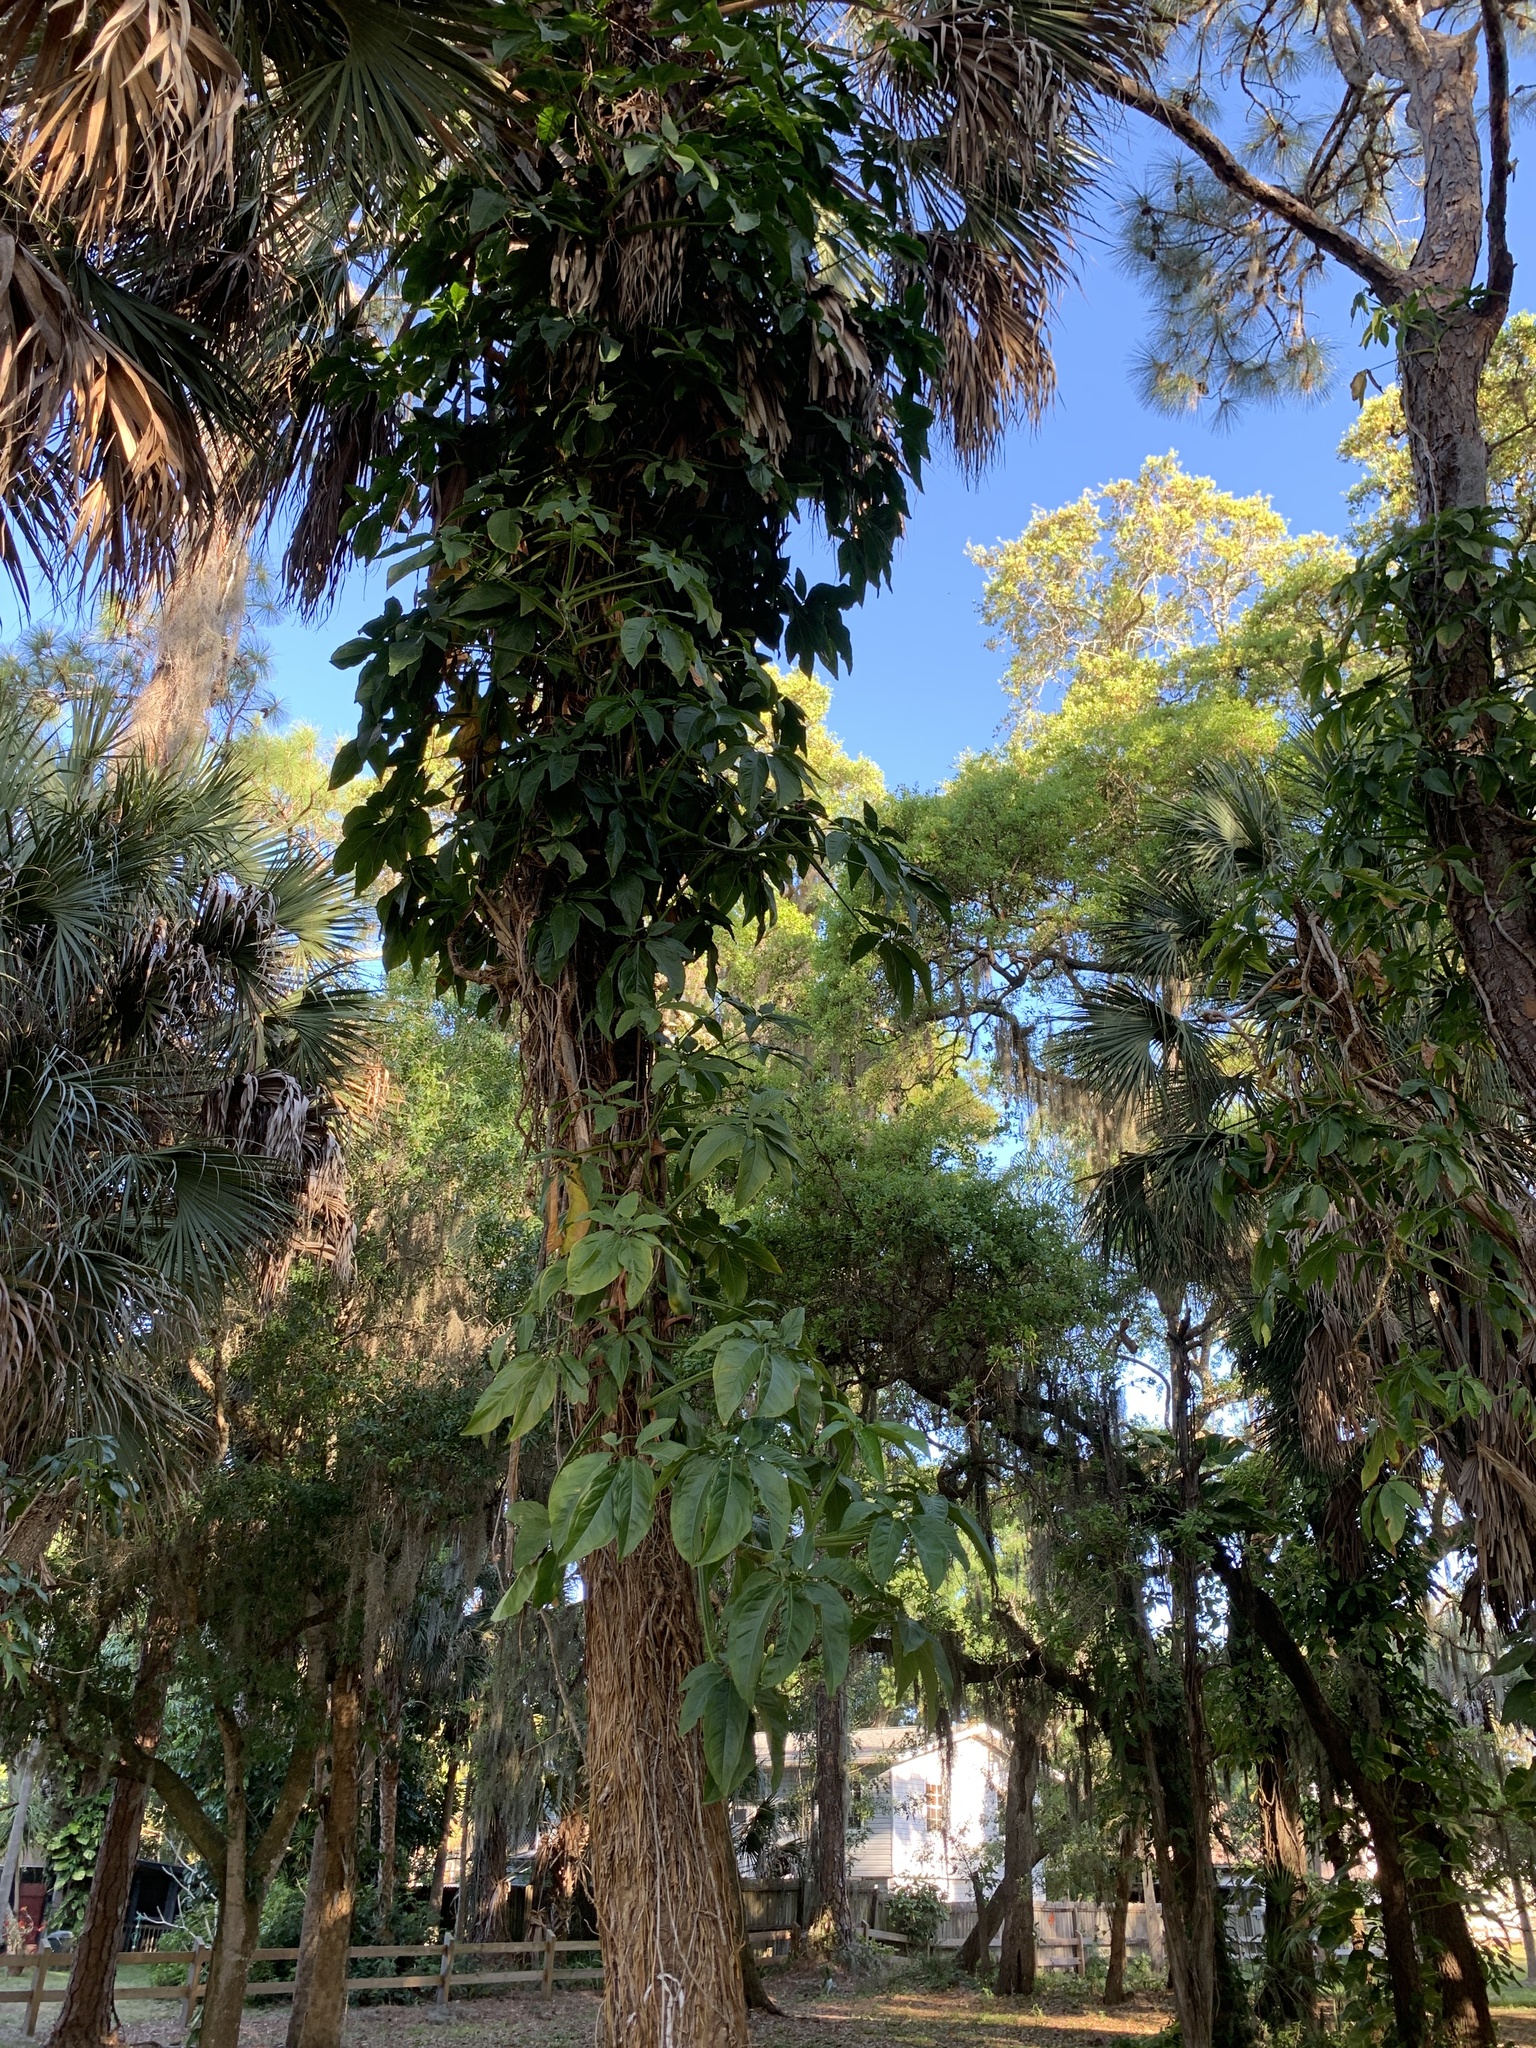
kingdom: Plantae
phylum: Tracheophyta
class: Liliopsida
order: Alismatales
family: Araceae
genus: Syngonium
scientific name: Syngonium podophyllum
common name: American evergreen
